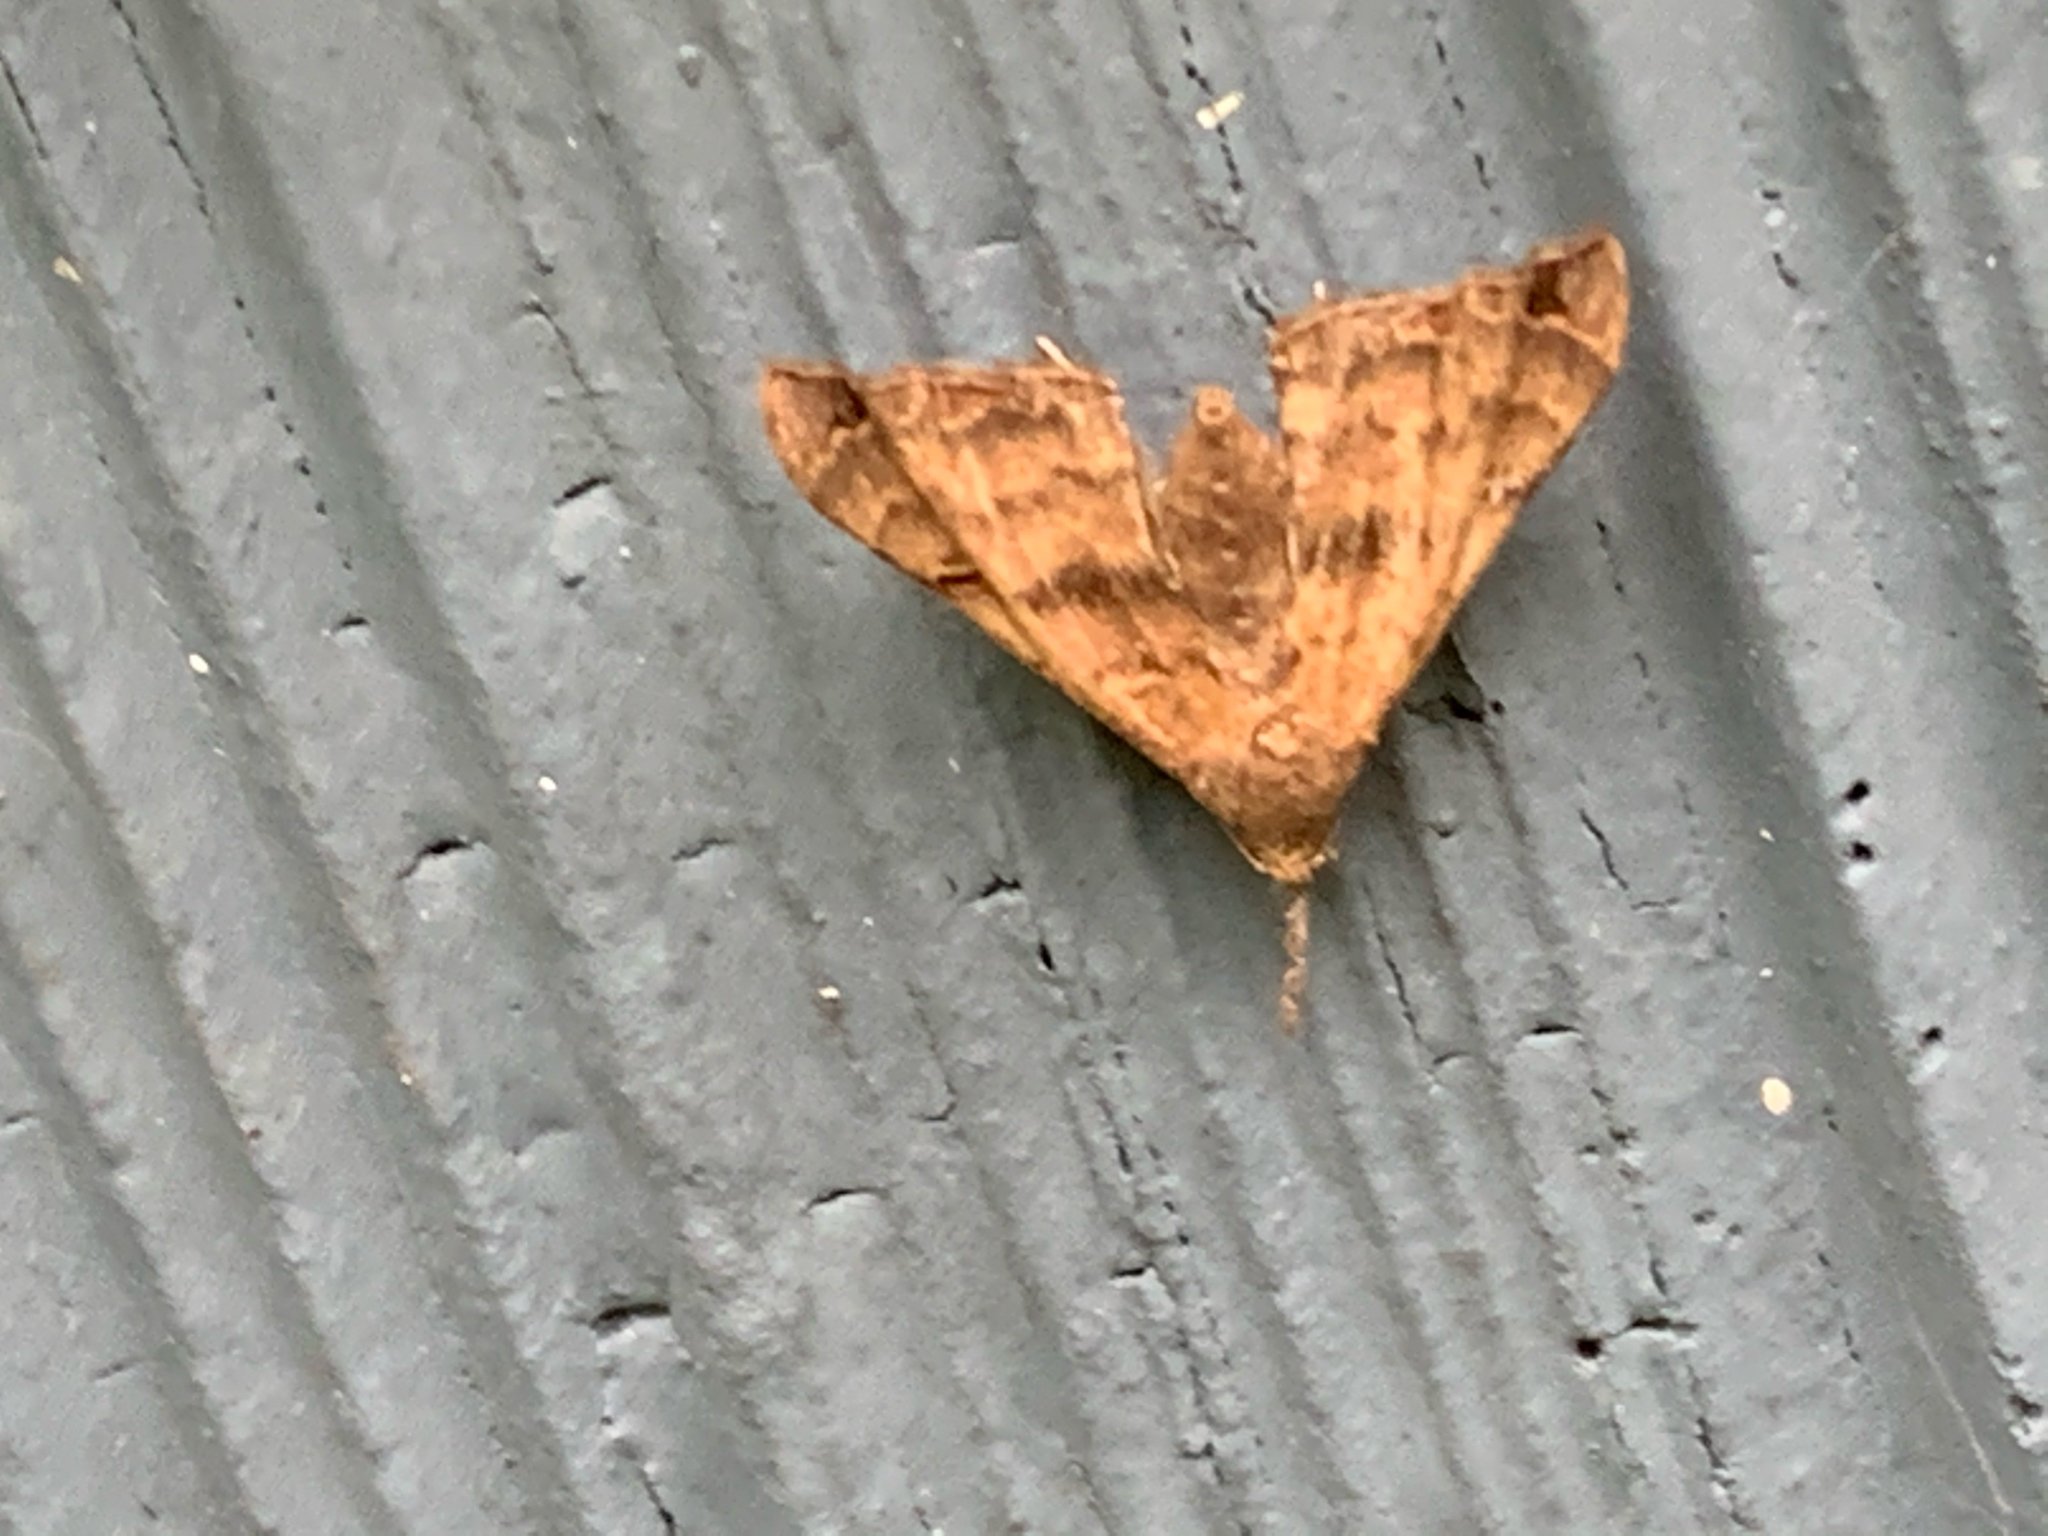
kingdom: Animalia
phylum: Arthropoda
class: Insecta
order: Lepidoptera
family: Erebidae
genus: Palthis
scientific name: Palthis asopialis
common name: Faint-spotted palthis moth
